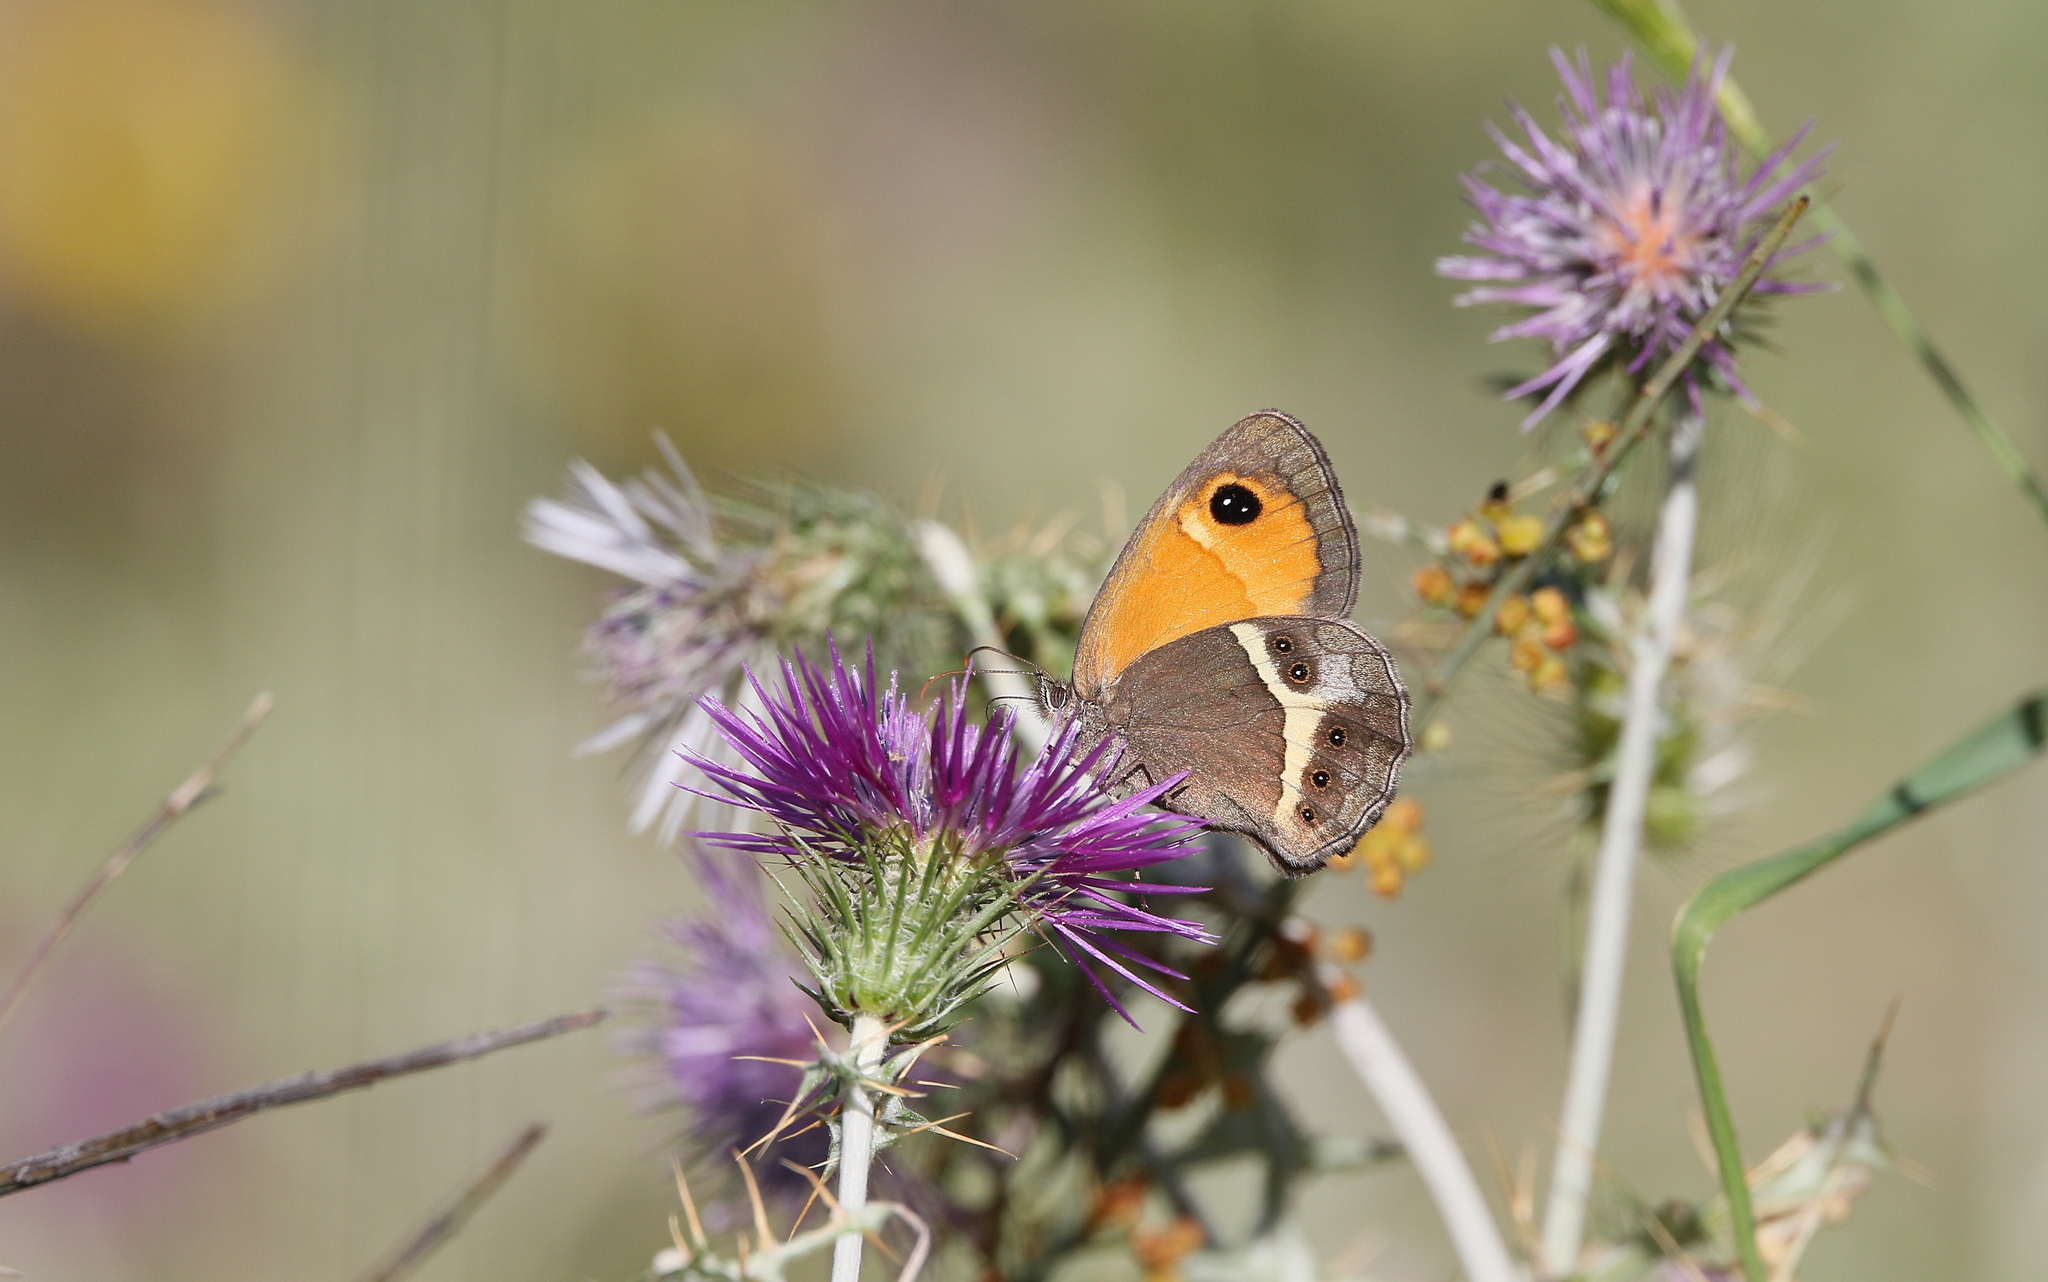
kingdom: Animalia
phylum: Arthropoda
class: Insecta
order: Lepidoptera
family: Nymphalidae
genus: Pyronia
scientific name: Pyronia bathseba
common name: Spanish gatekeeper
